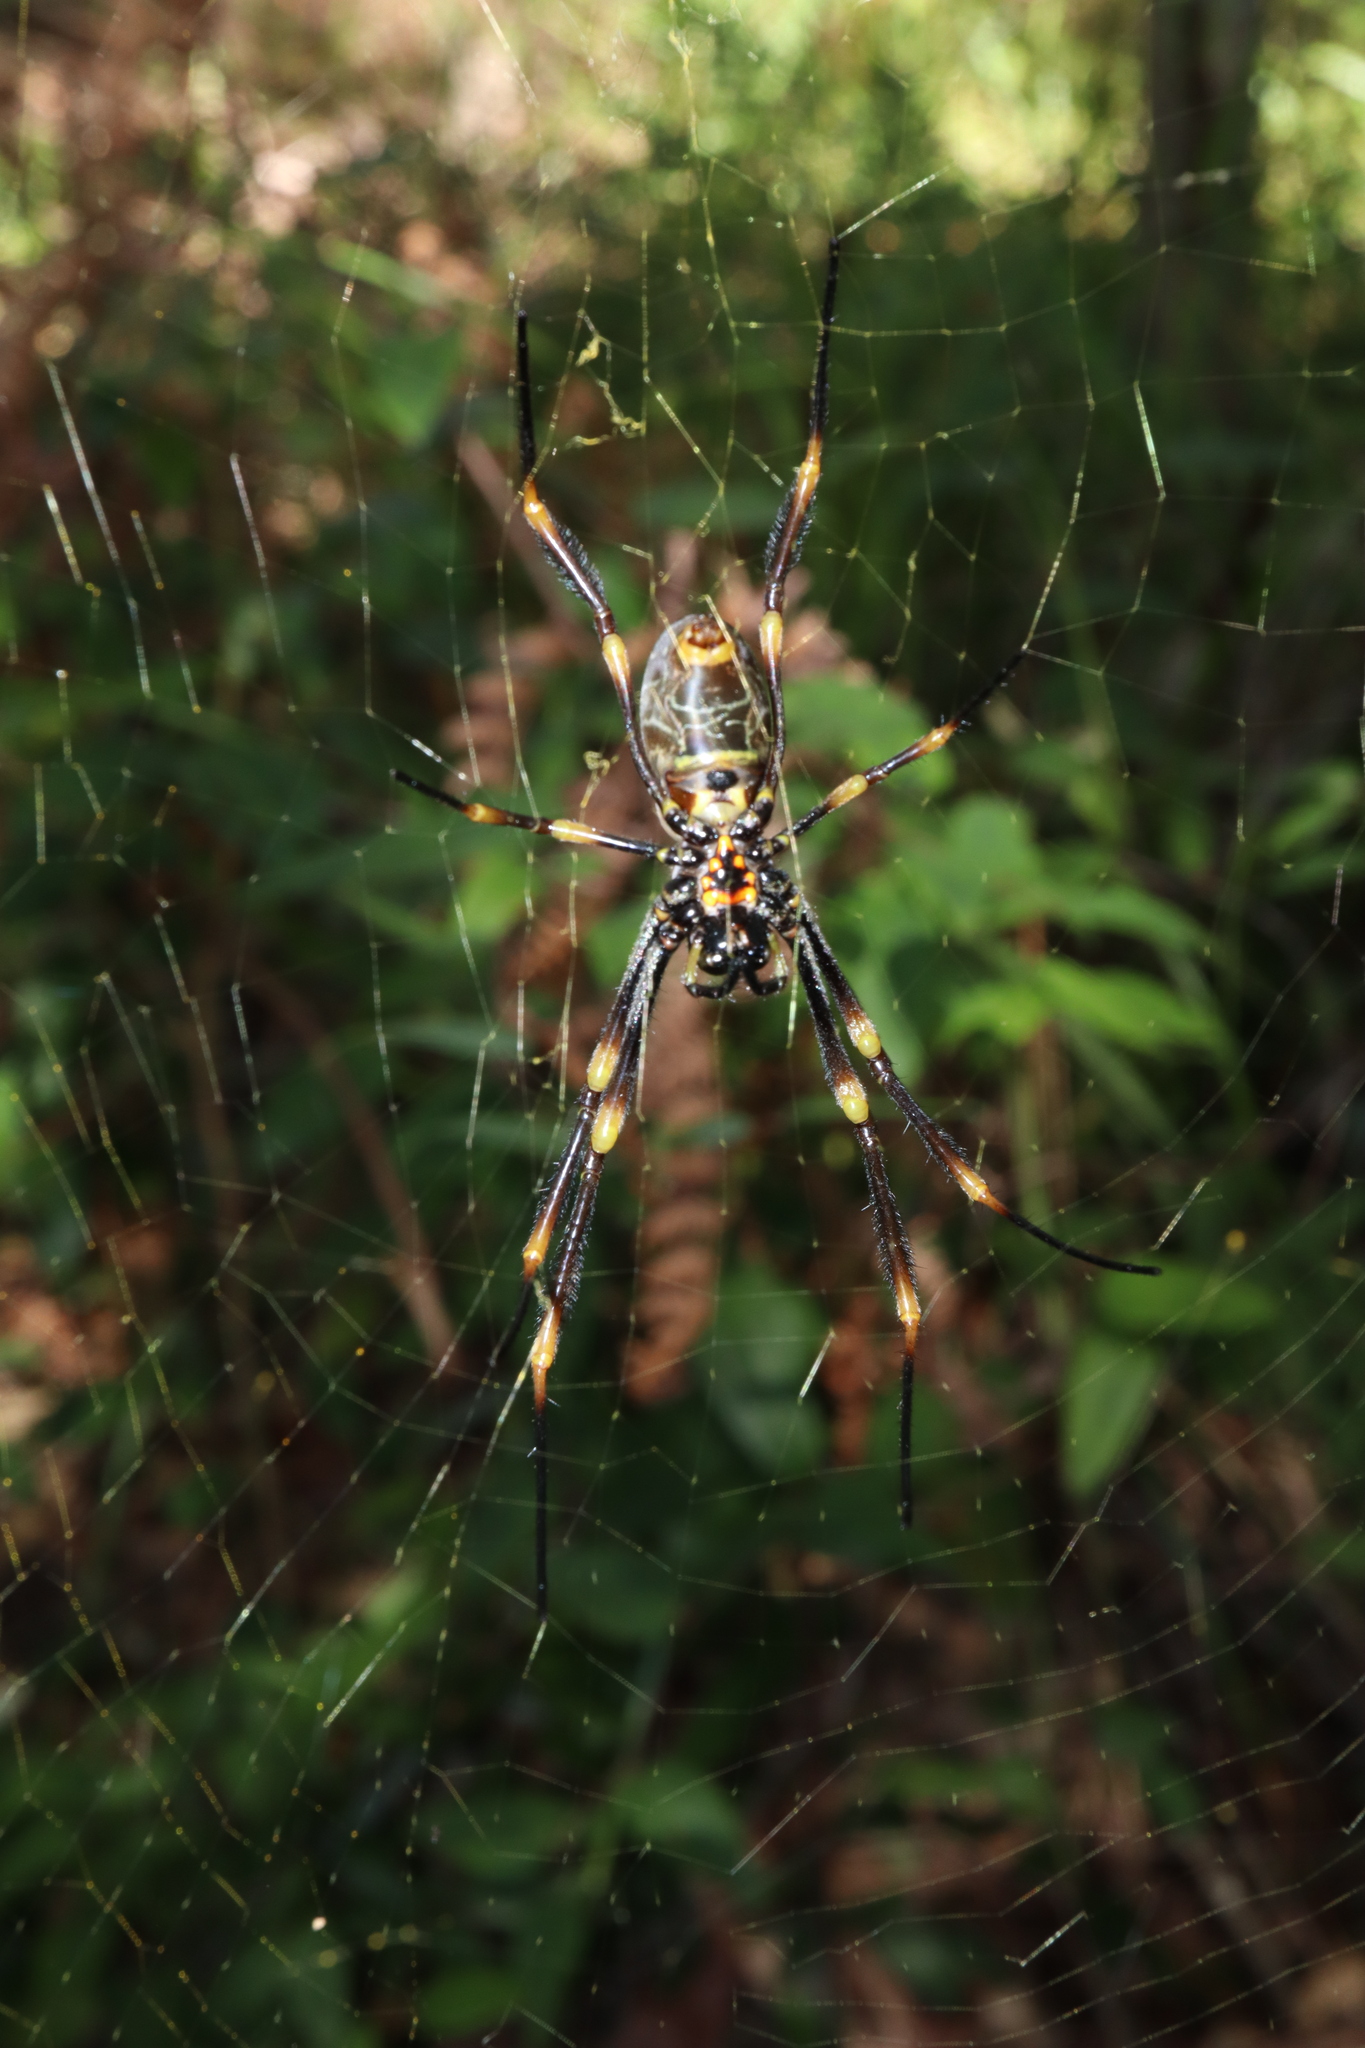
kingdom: Animalia
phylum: Arthropoda
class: Arachnida
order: Araneae
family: Araneidae
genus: Trichonephila
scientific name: Trichonephila plumipes
